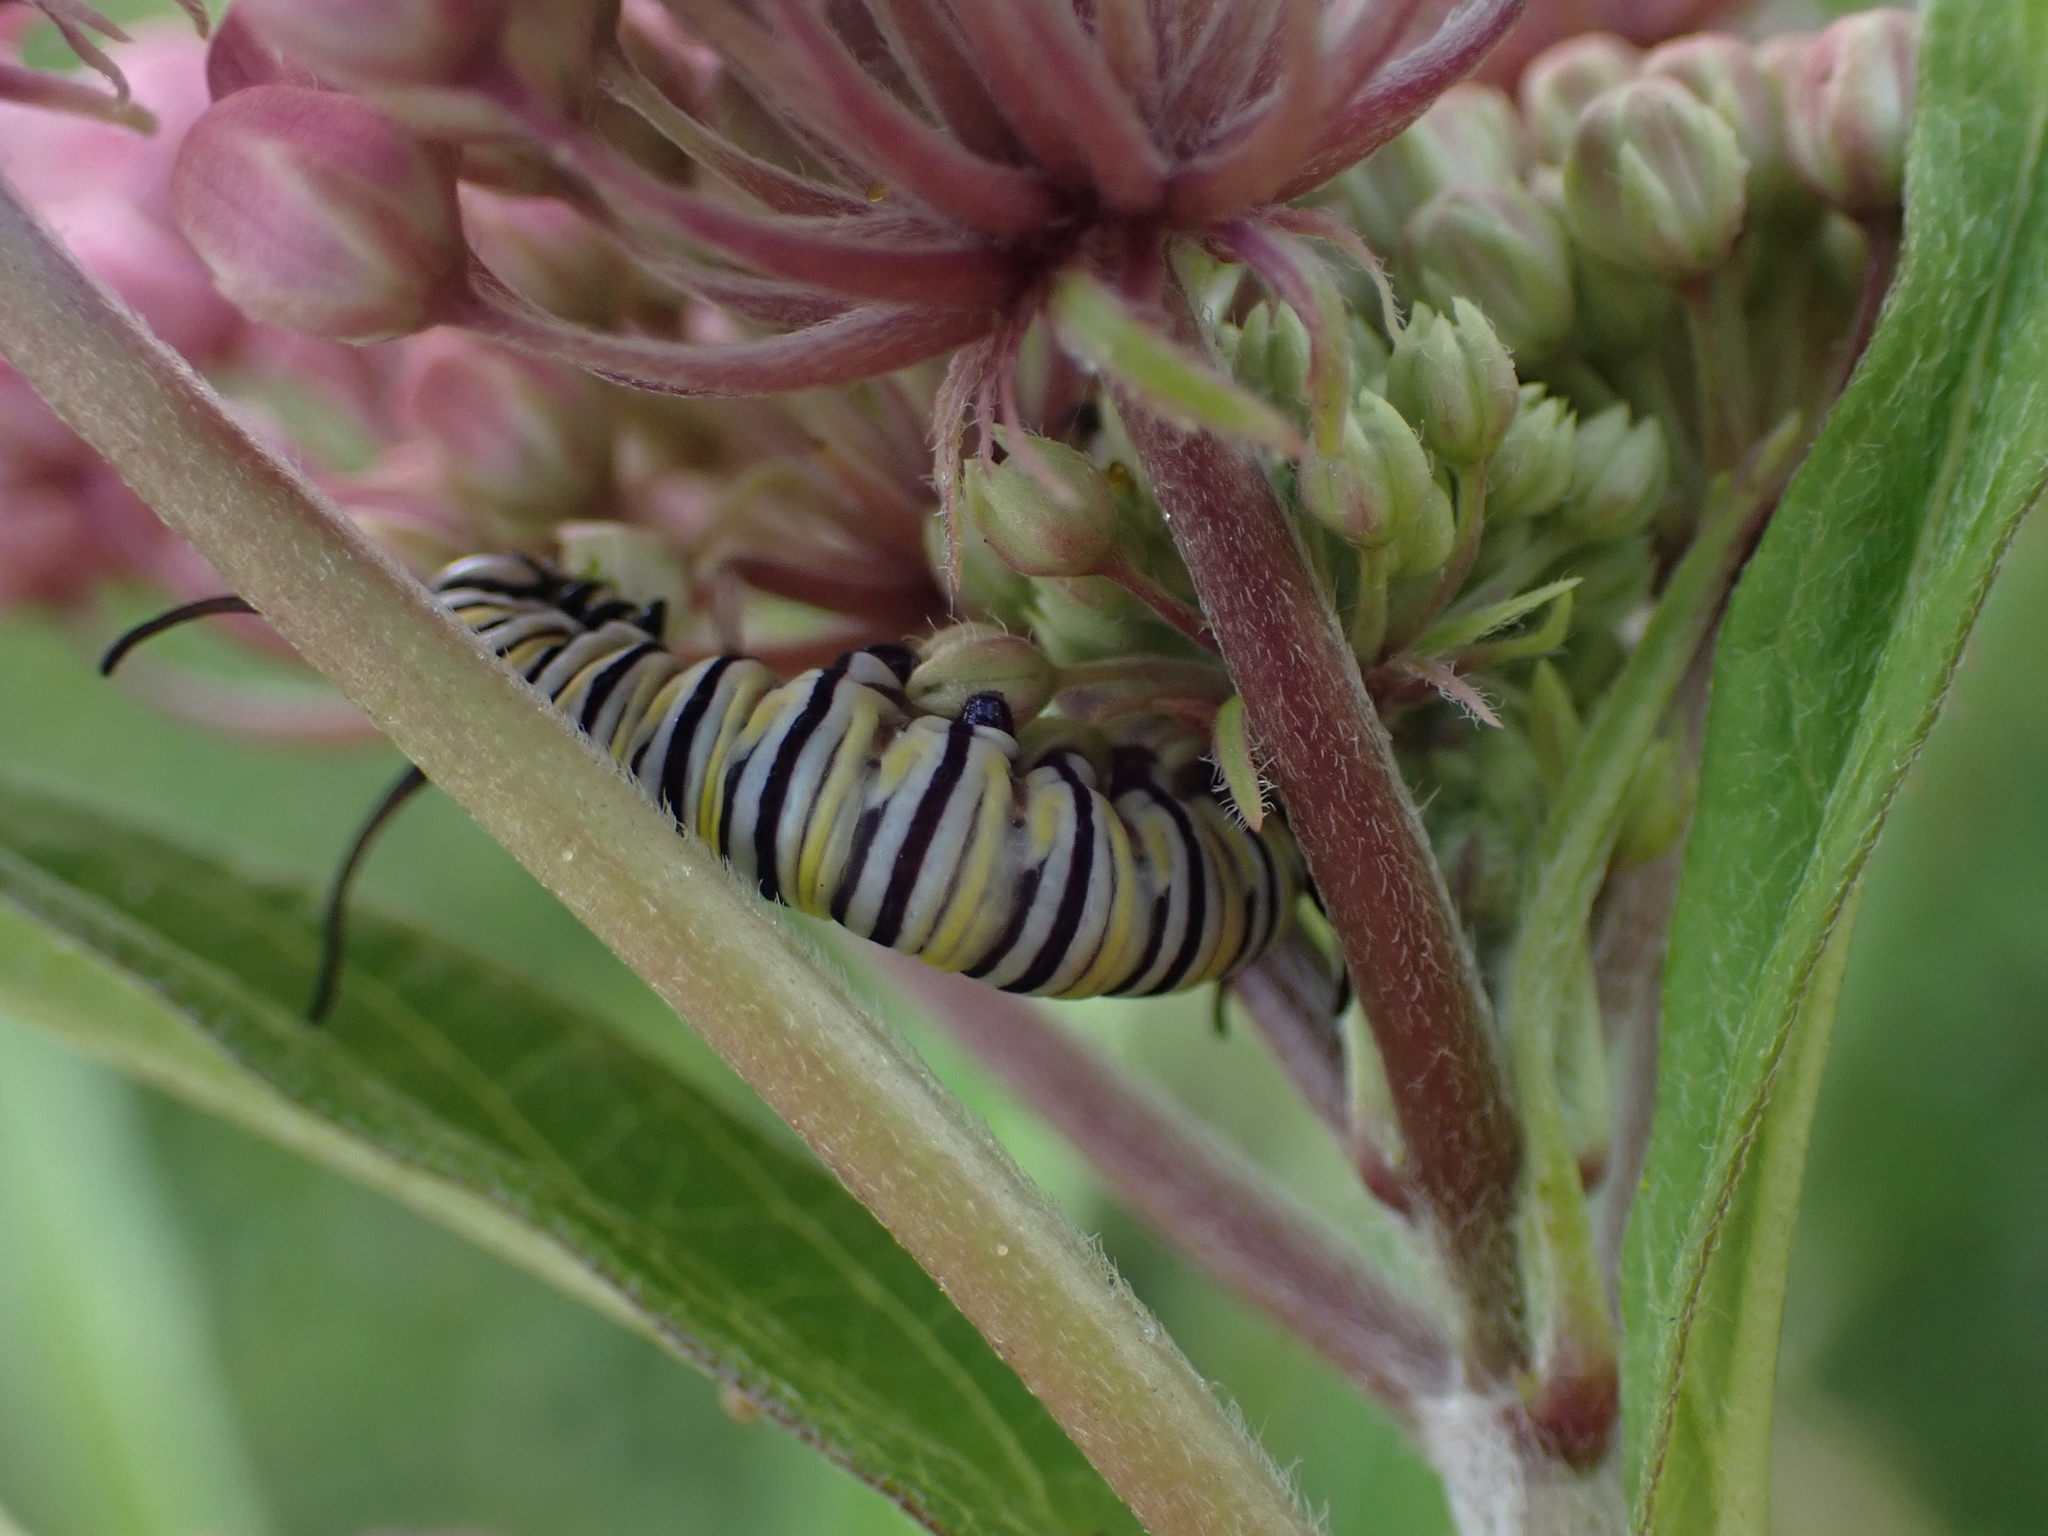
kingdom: Animalia
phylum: Arthropoda
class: Insecta
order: Lepidoptera
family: Nymphalidae
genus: Danaus
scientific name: Danaus plexippus
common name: Monarch
